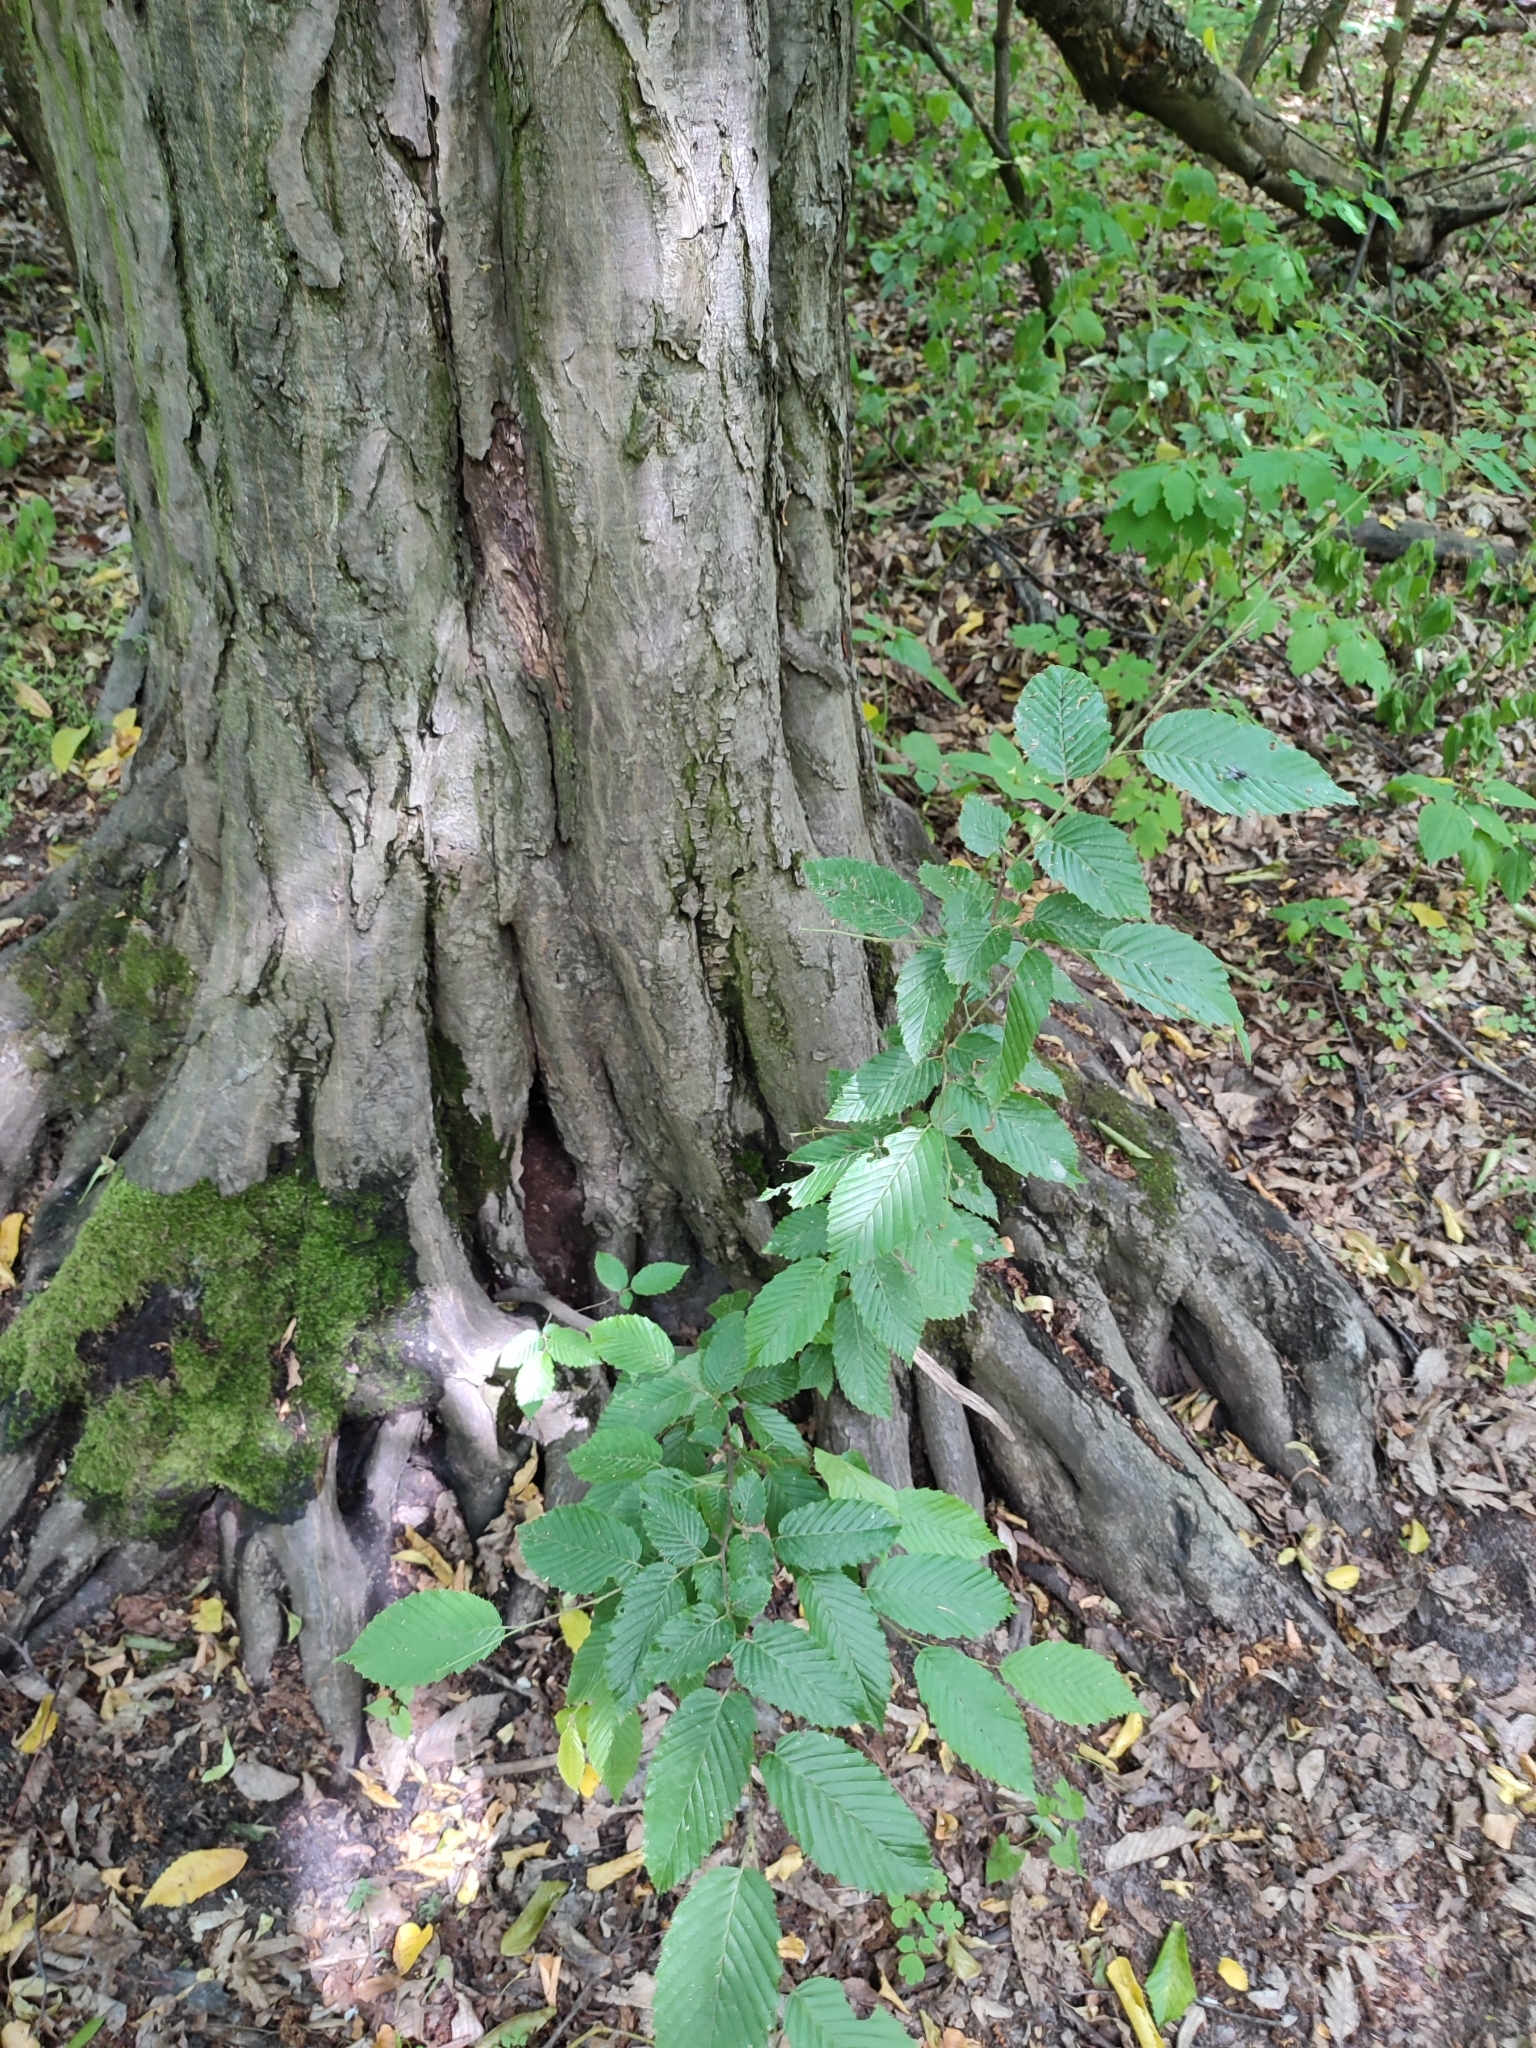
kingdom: Plantae
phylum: Tracheophyta
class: Magnoliopsida
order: Fagales
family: Betulaceae
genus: Carpinus
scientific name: Carpinus betulus
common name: Hornbeam
